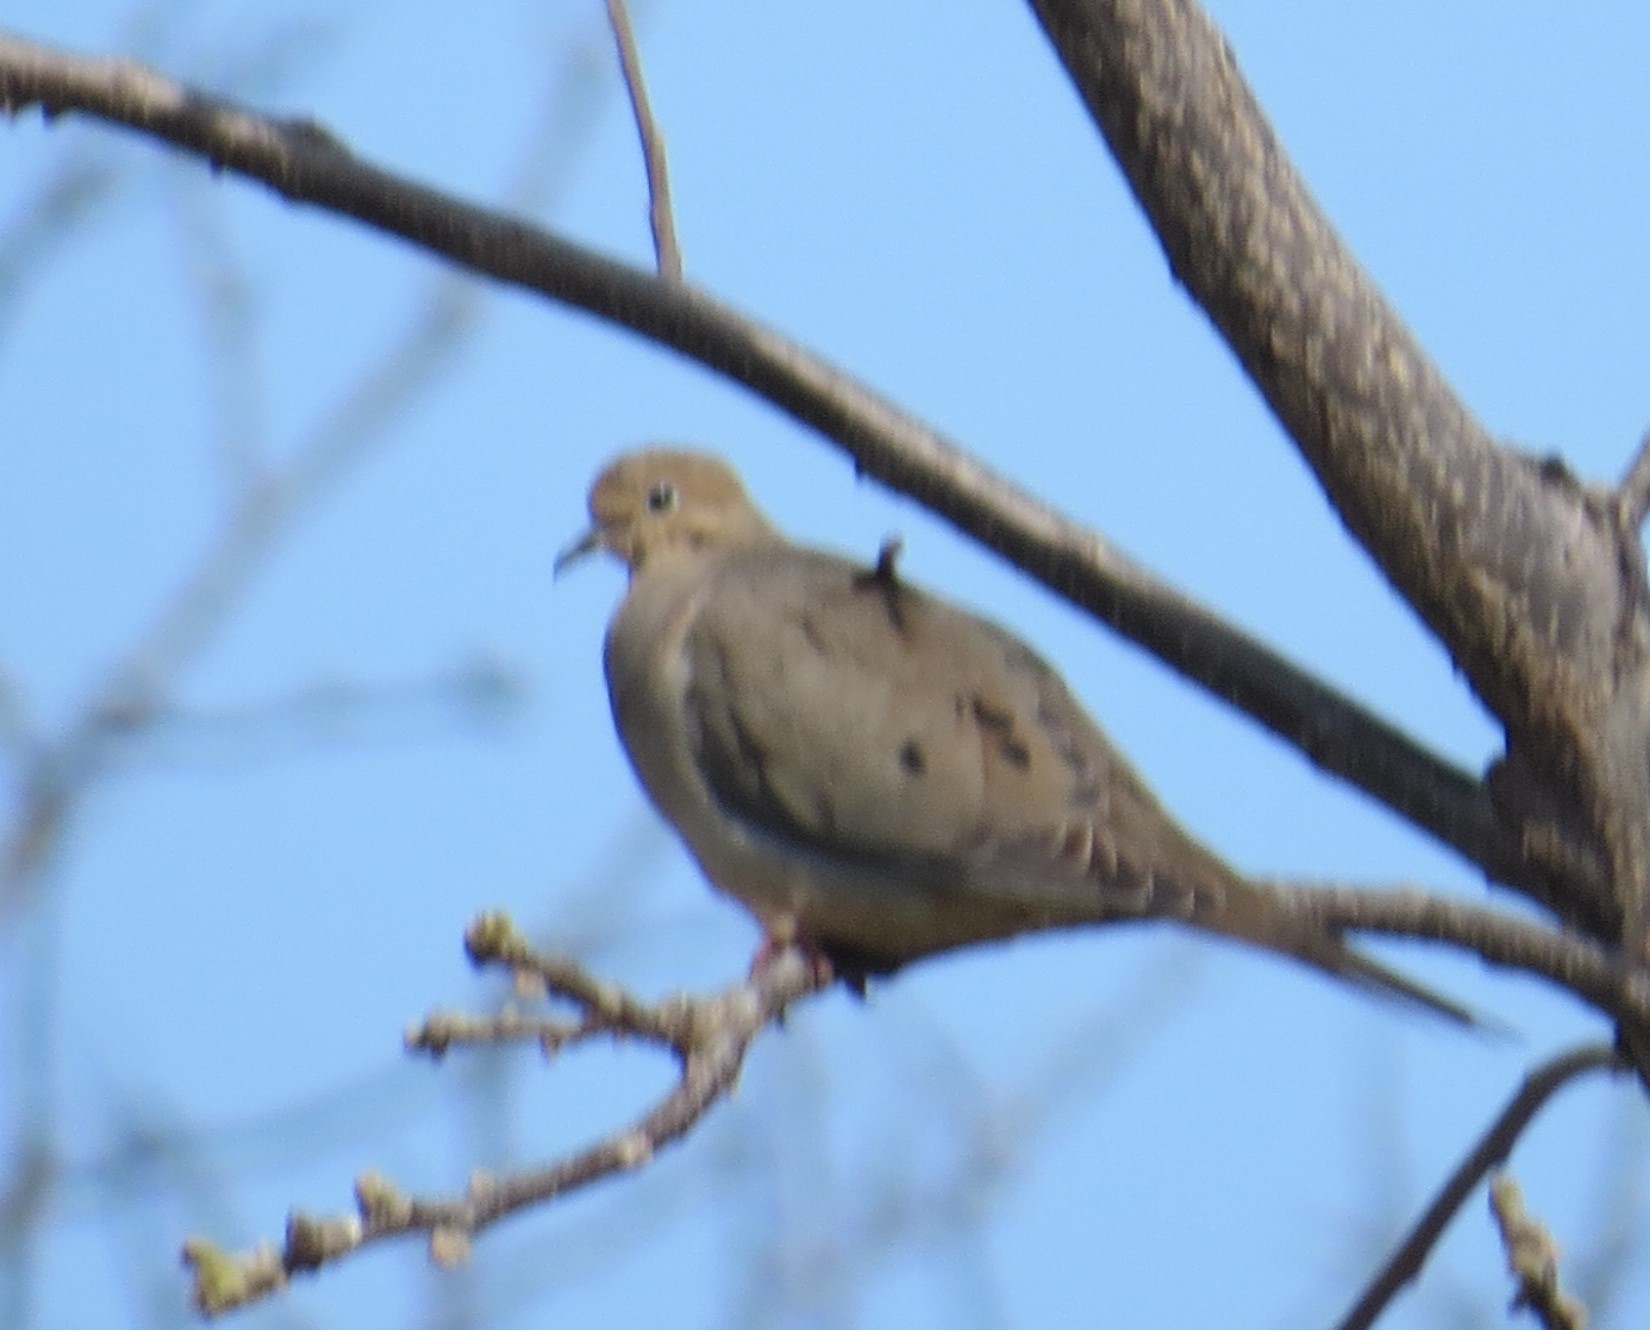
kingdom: Animalia
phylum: Chordata
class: Aves
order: Columbiformes
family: Columbidae
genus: Zenaida
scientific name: Zenaida macroura
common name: Mourning dove
